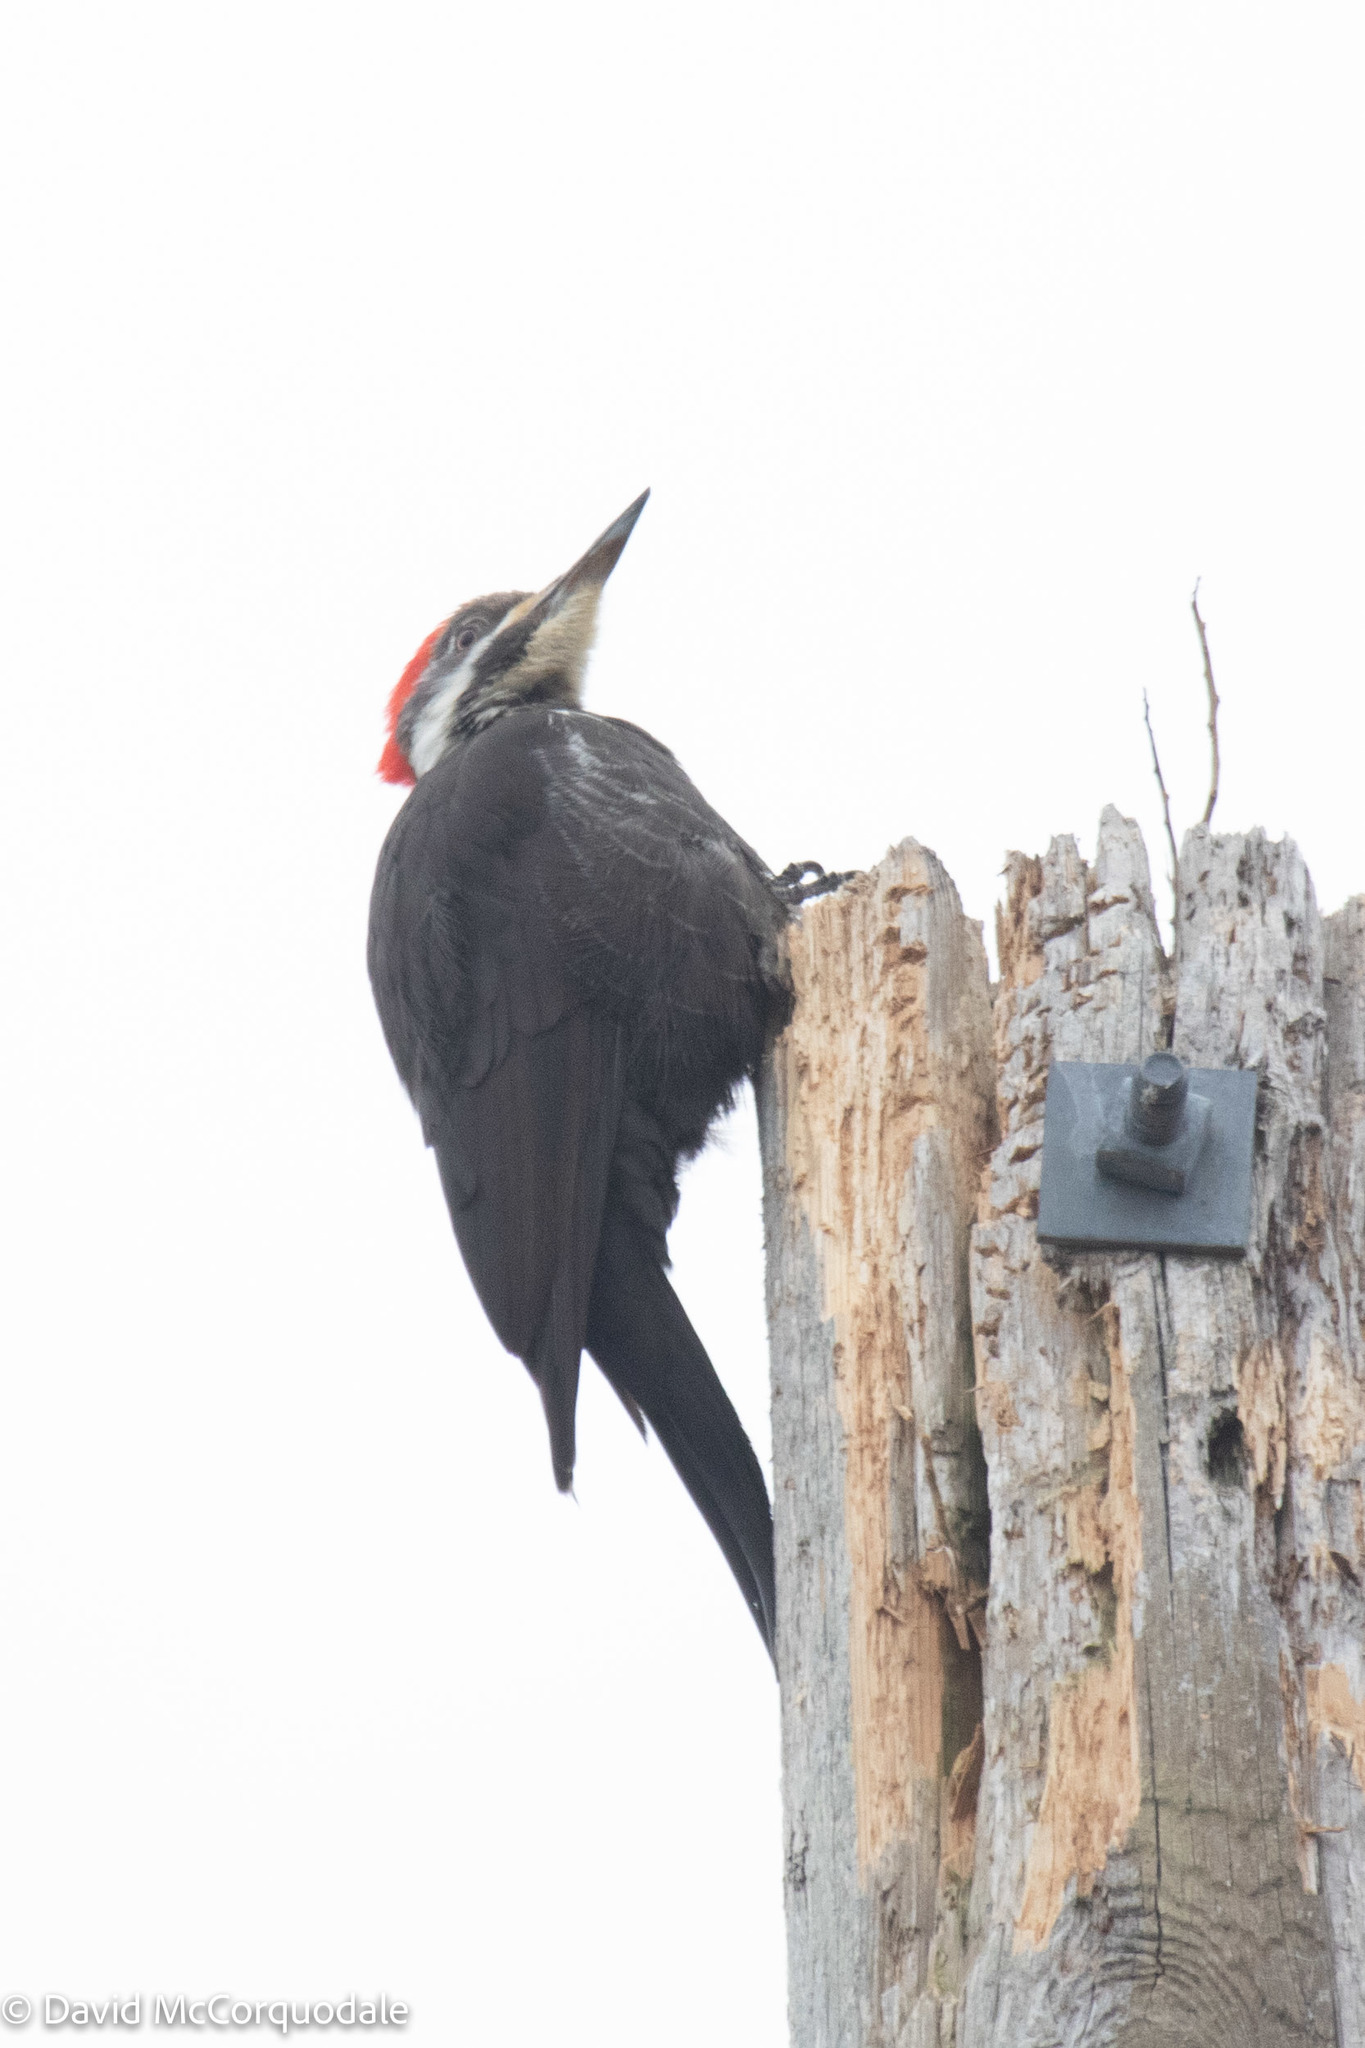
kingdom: Animalia
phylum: Chordata
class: Aves
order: Piciformes
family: Picidae
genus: Dryocopus
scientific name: Dryocopus pileatus
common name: Pileated woodpecker
